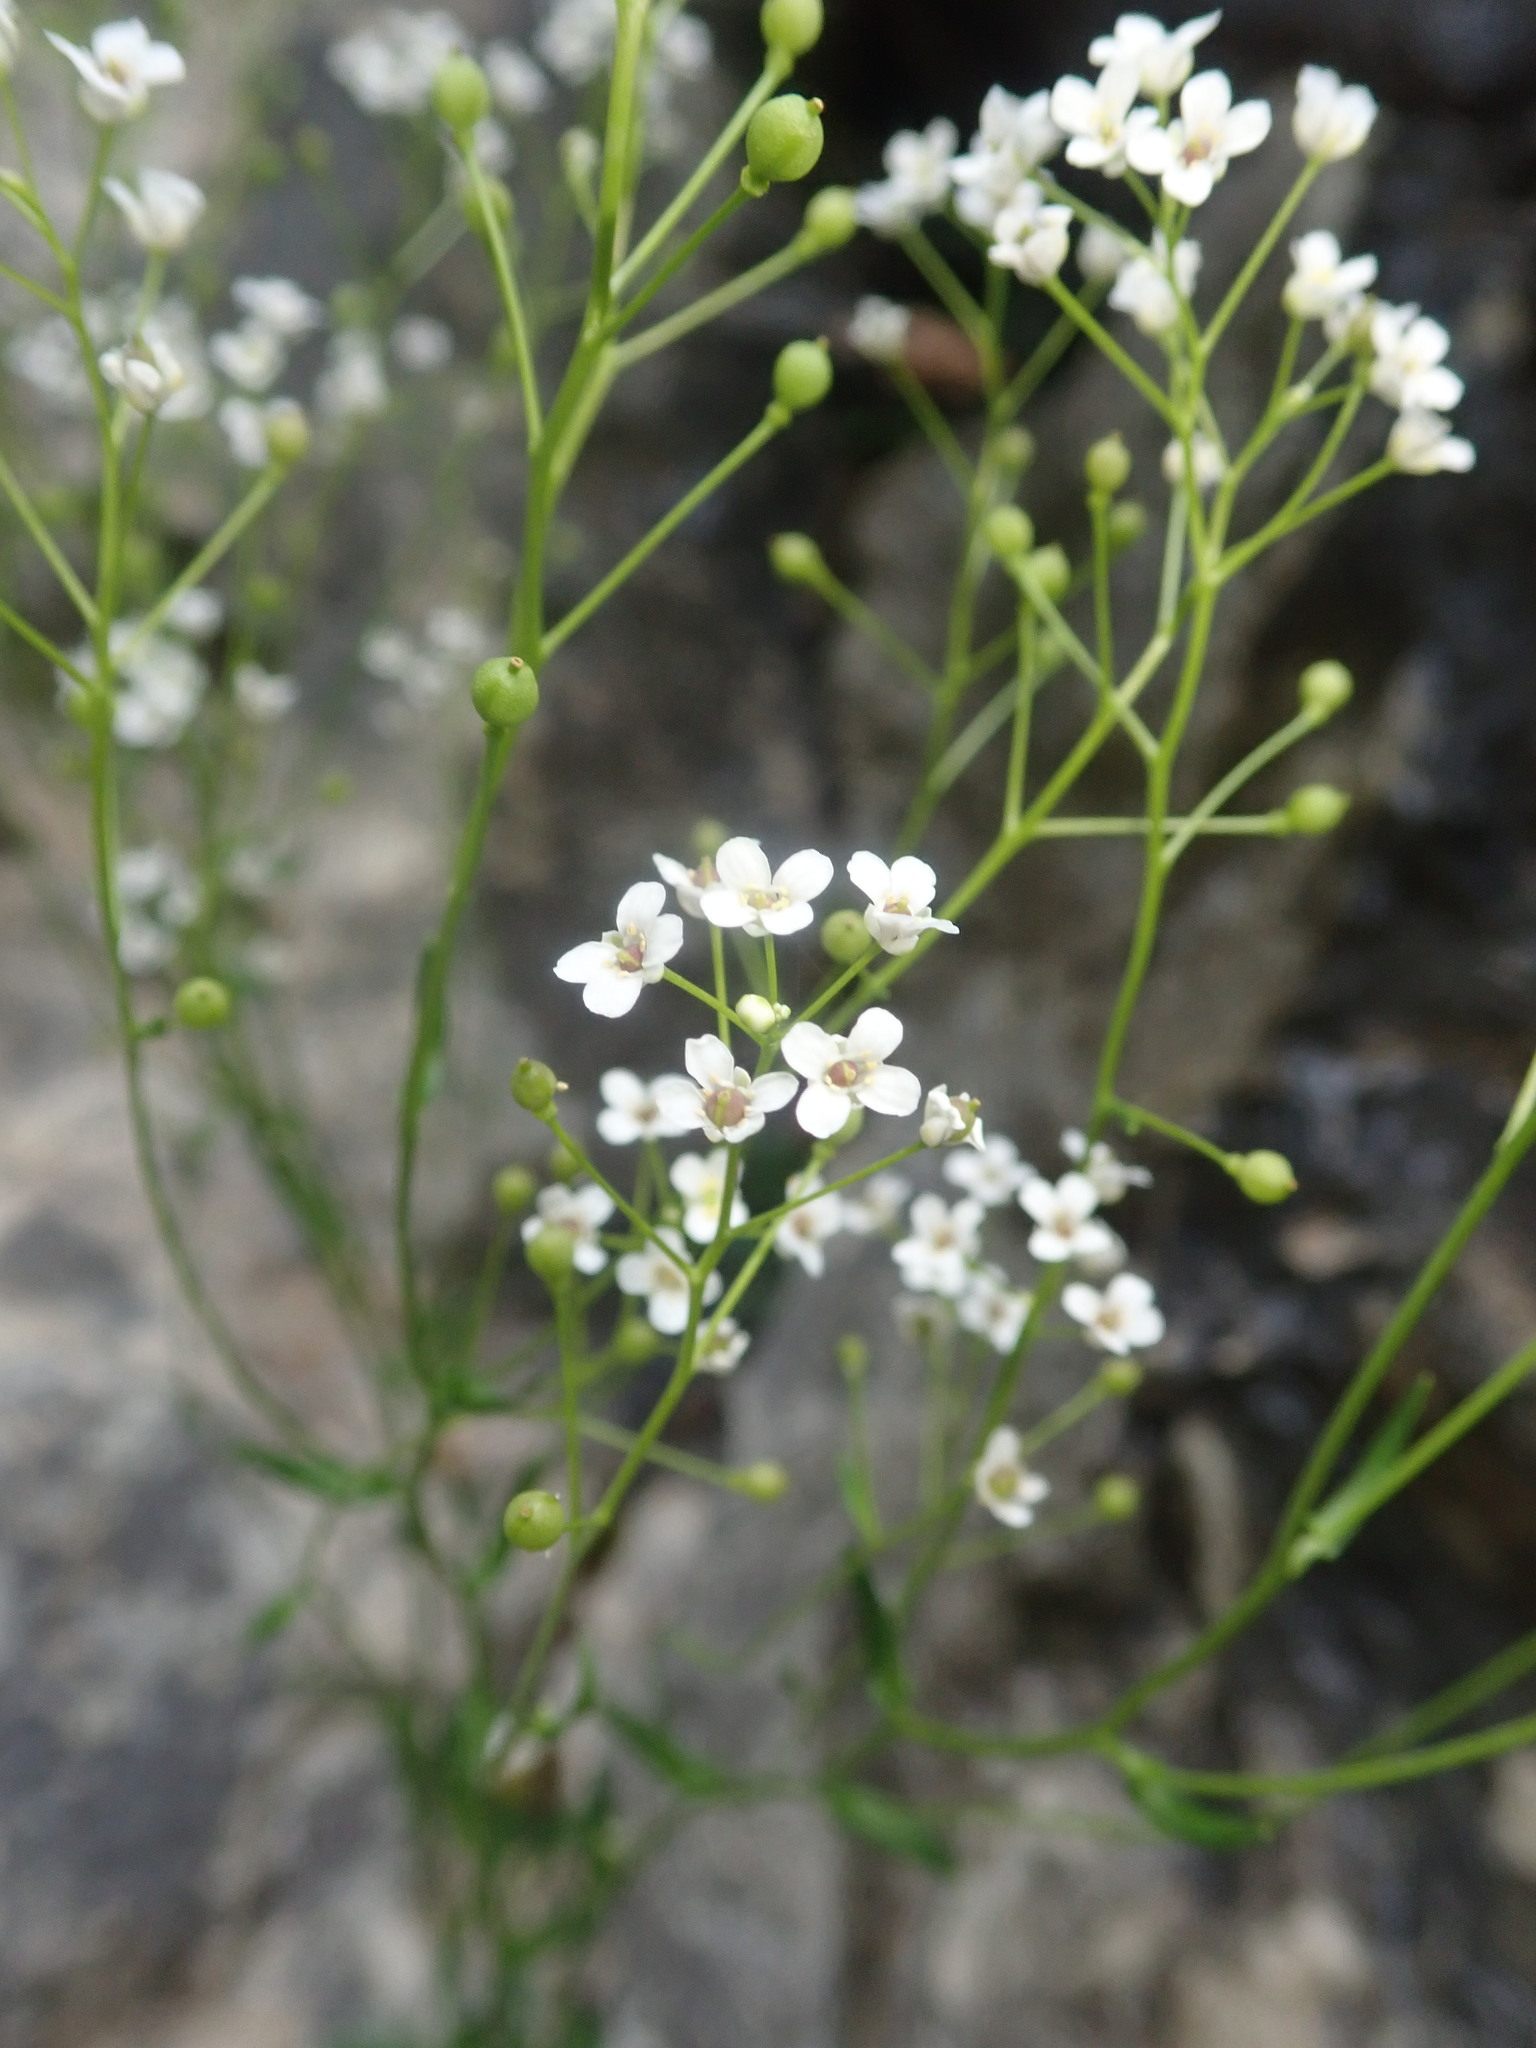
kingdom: Plantae
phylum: Tracheophyta
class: Magnoliopsida
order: Brassicales
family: Brassicaceae
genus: Kernera
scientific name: Kernera saxatilis
